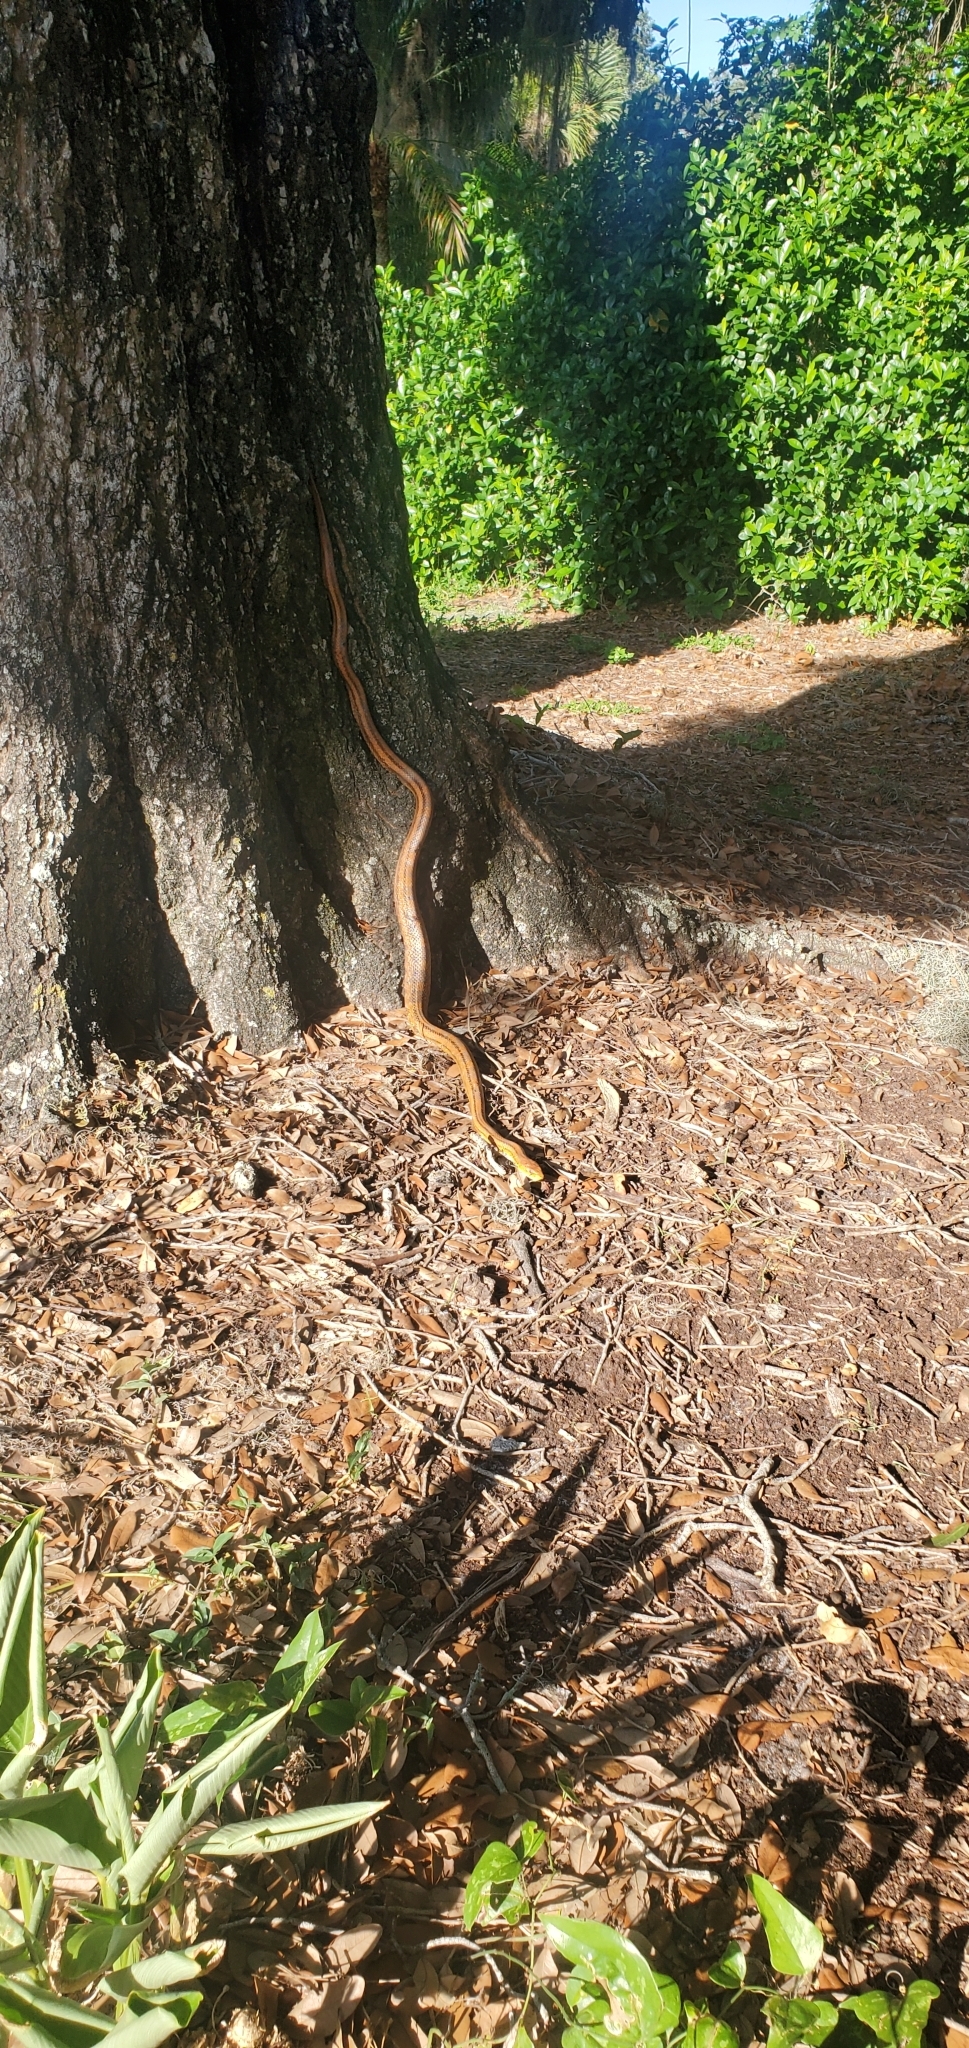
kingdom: Animalia
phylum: Chordata
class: Squamata
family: Colubridae
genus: Pantherophis
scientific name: Pantherophis alleghaniensis
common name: Eastern rat snake
